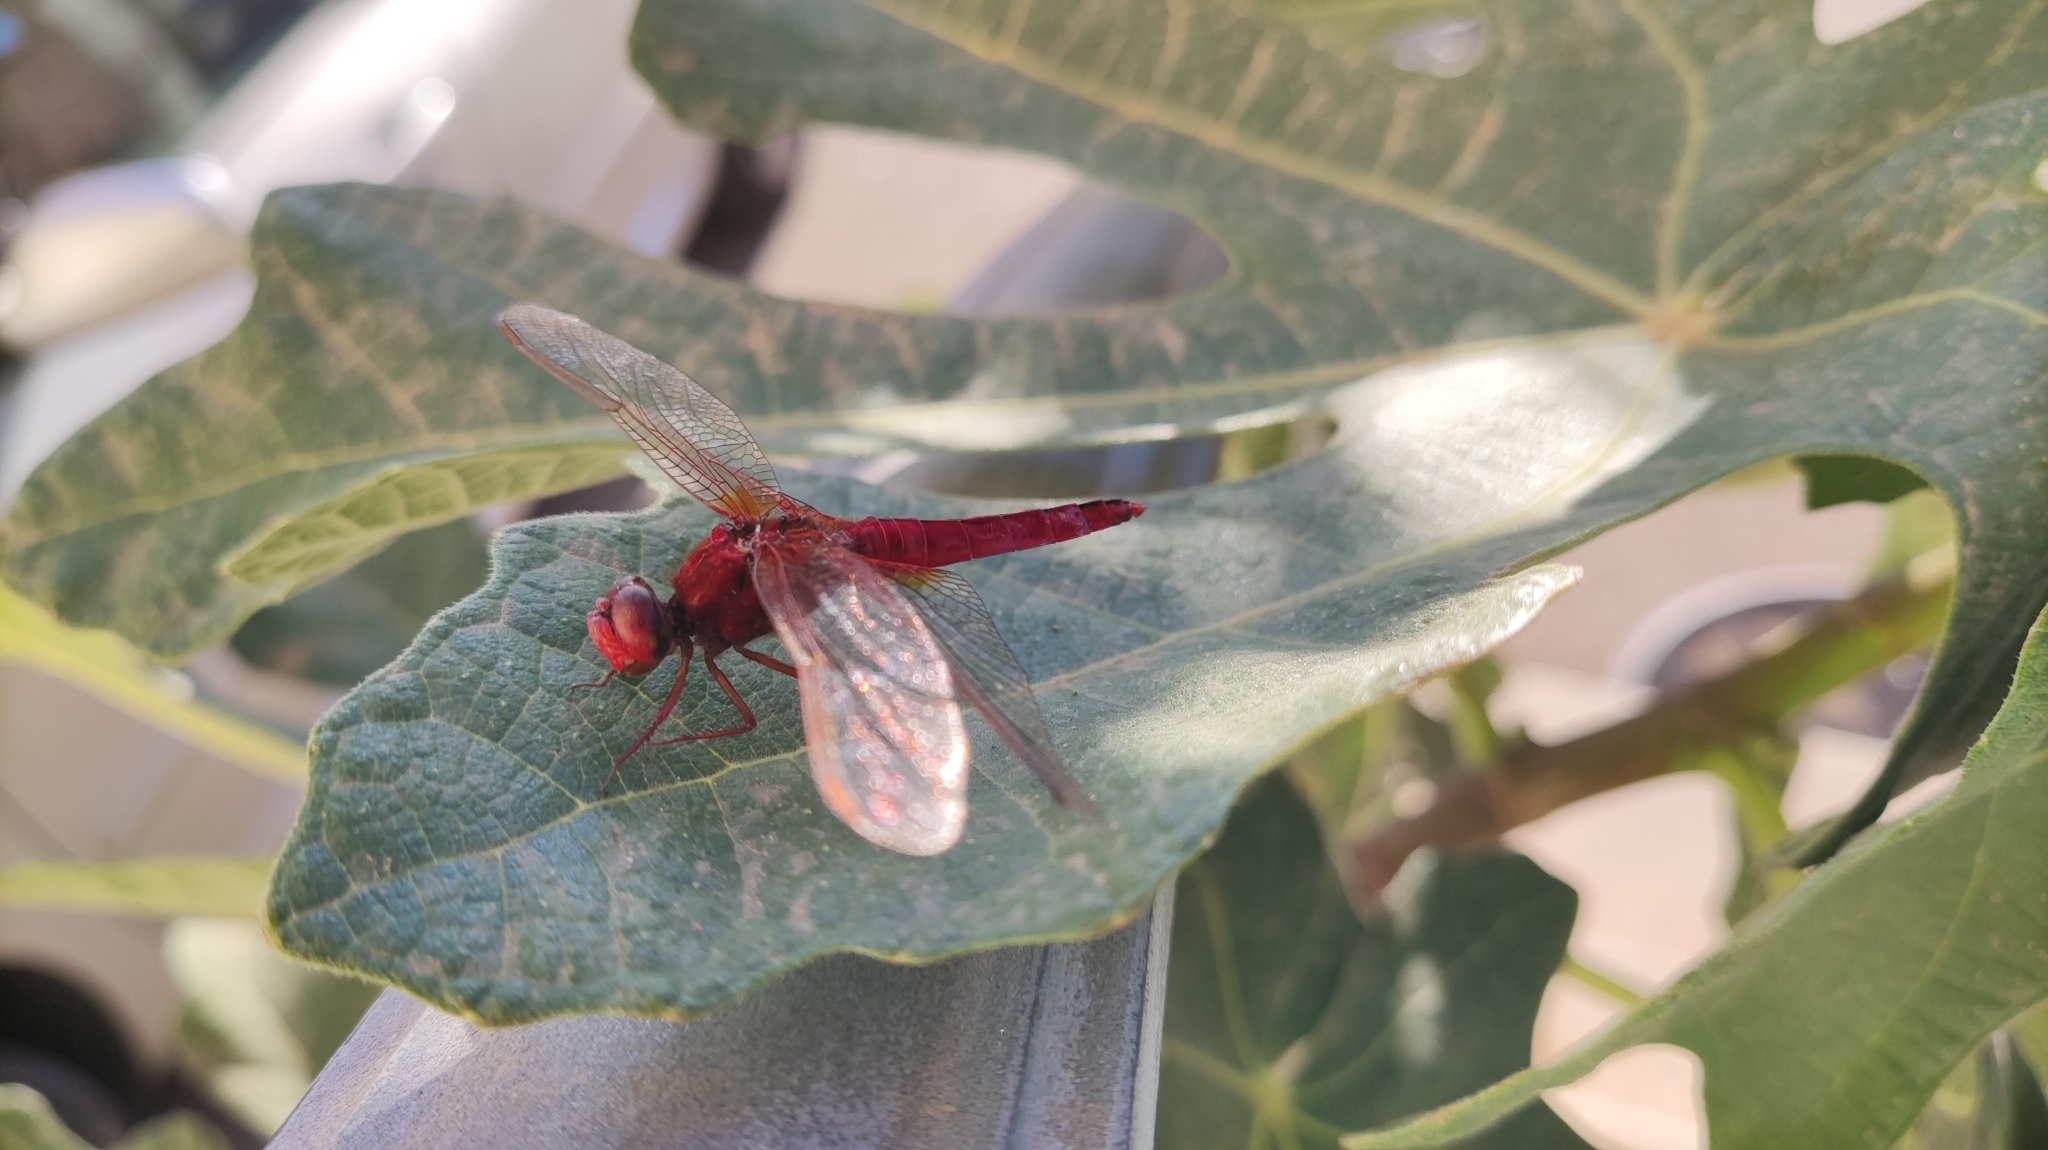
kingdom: Animalia
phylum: Arthropoda
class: Insecta
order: Odonata
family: Libellulidae
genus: Crocothemis
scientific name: Crocothemis erythraea
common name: Scarlet dragonfly
